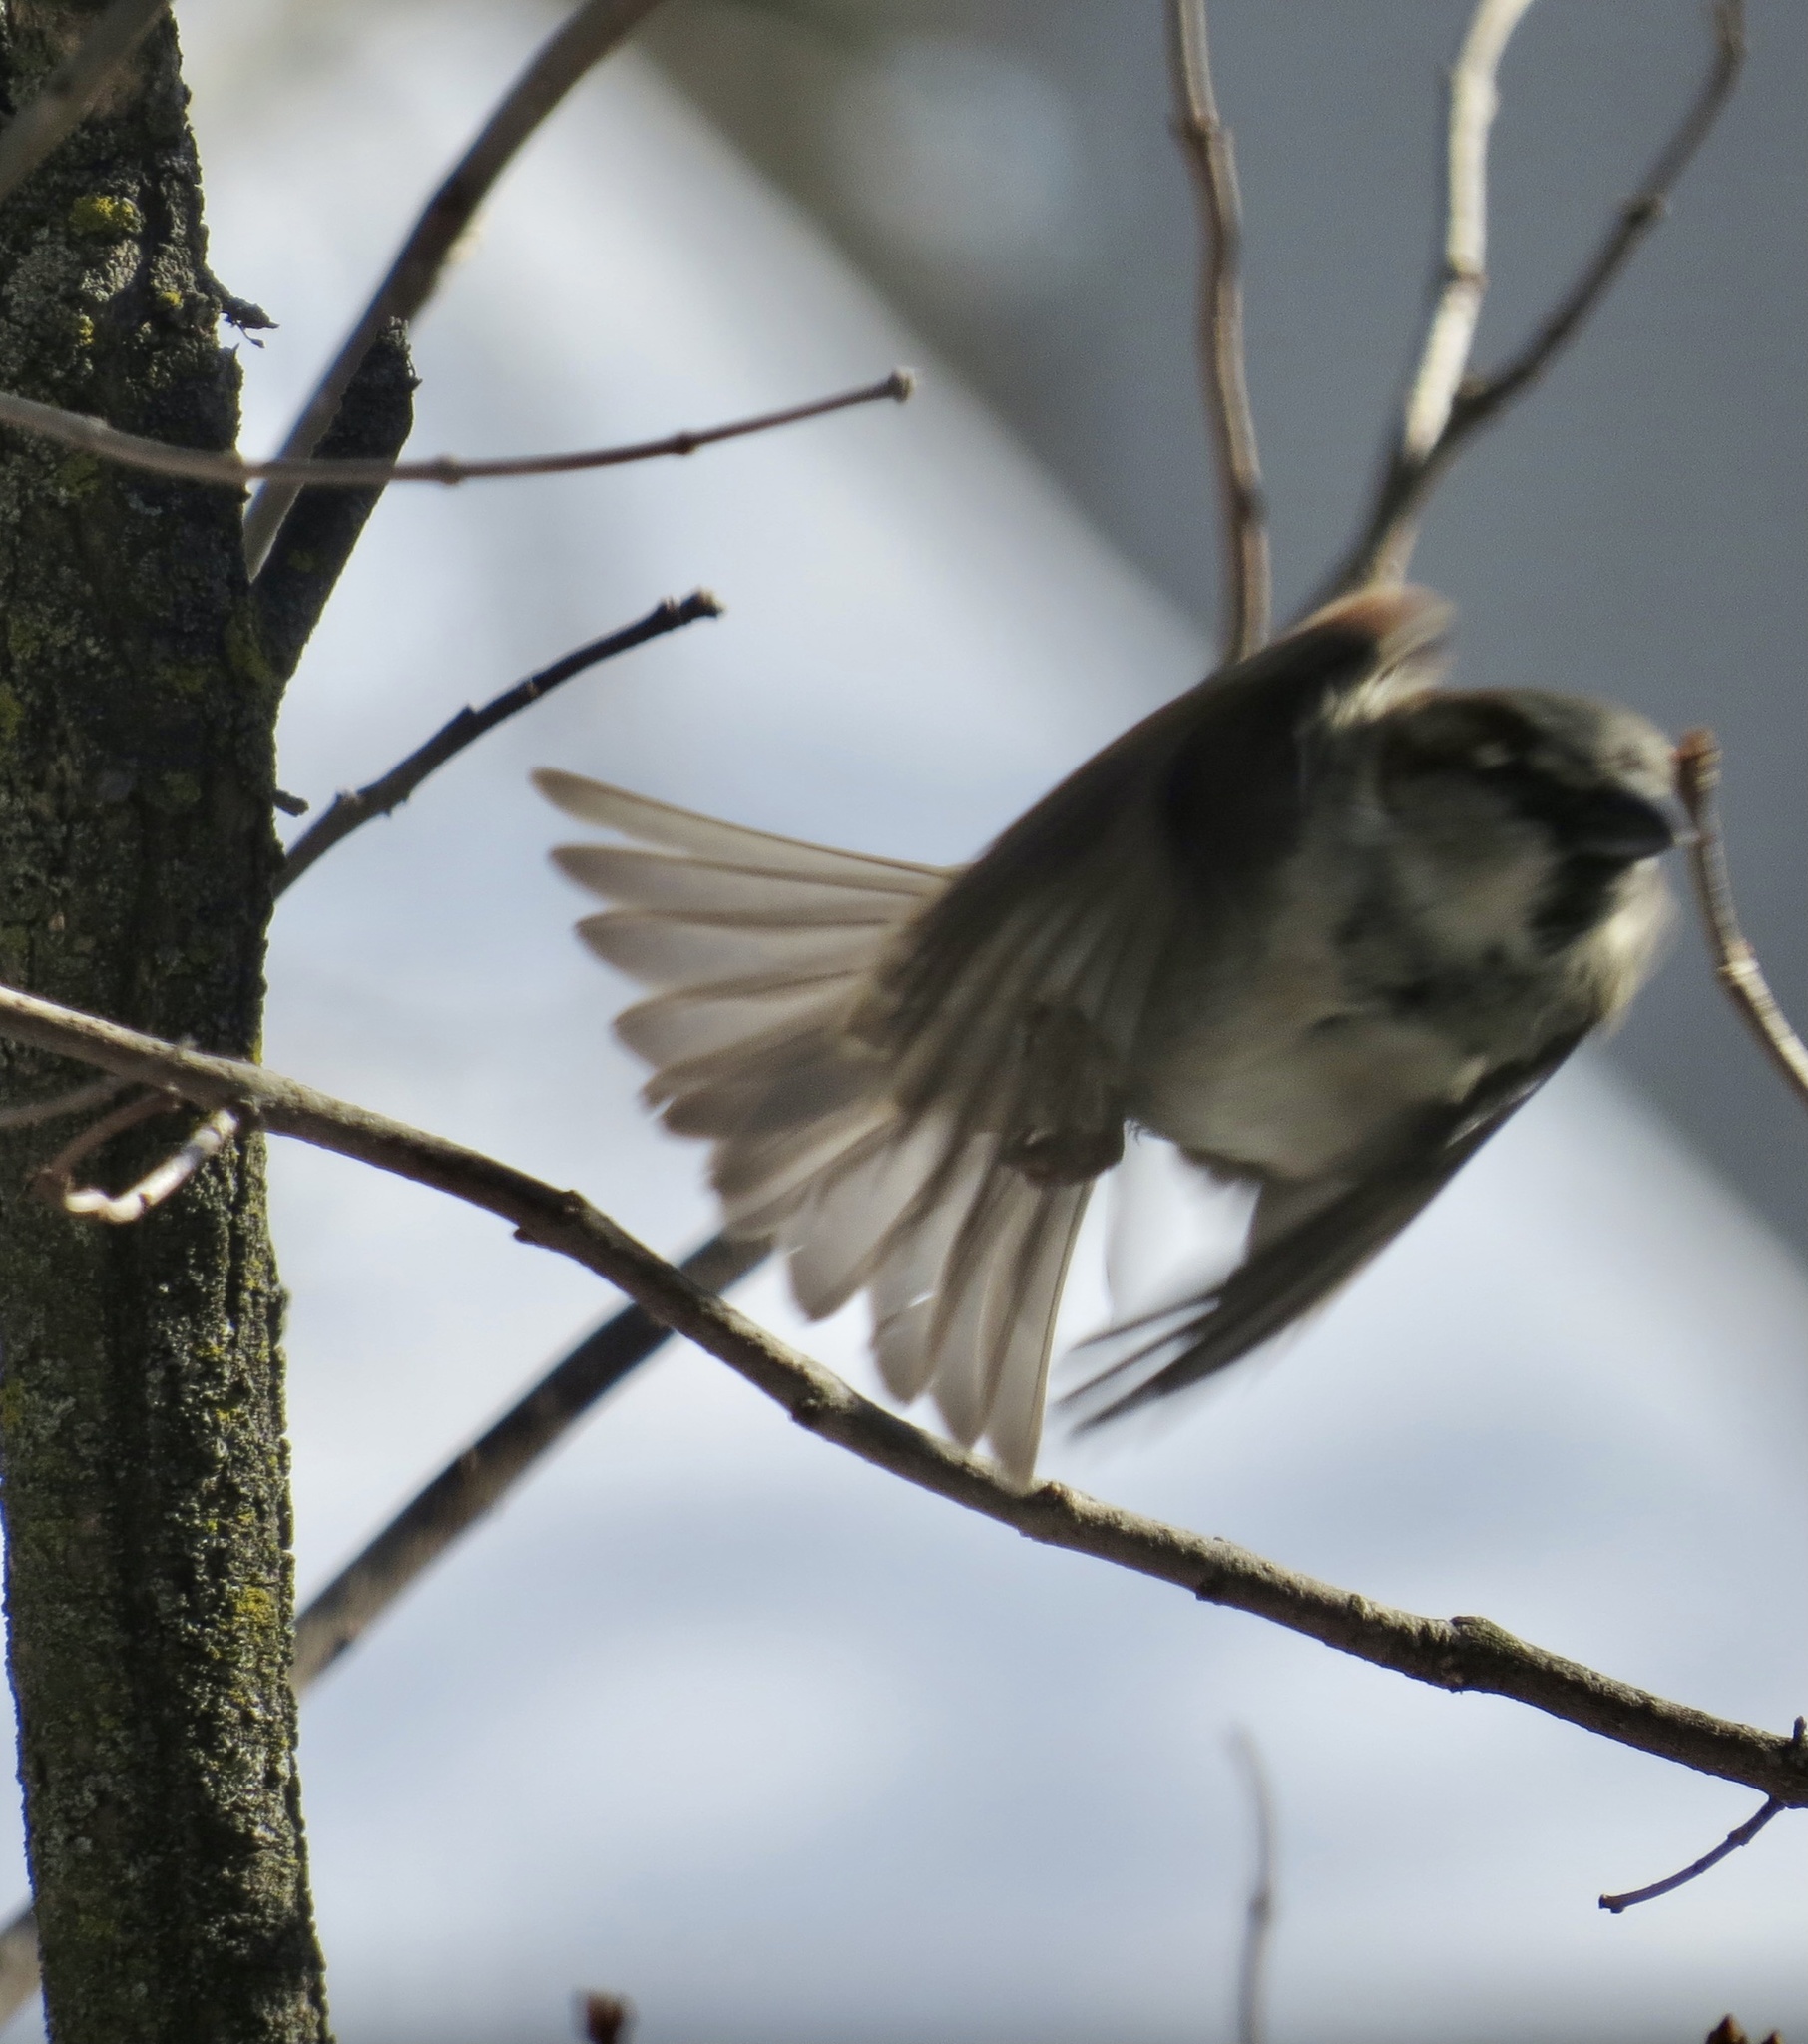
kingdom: Animalia
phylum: Chordata
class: Aves
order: Passeriformes
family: Passeridae
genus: Passer
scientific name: Passer domesticus
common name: House sparrow
